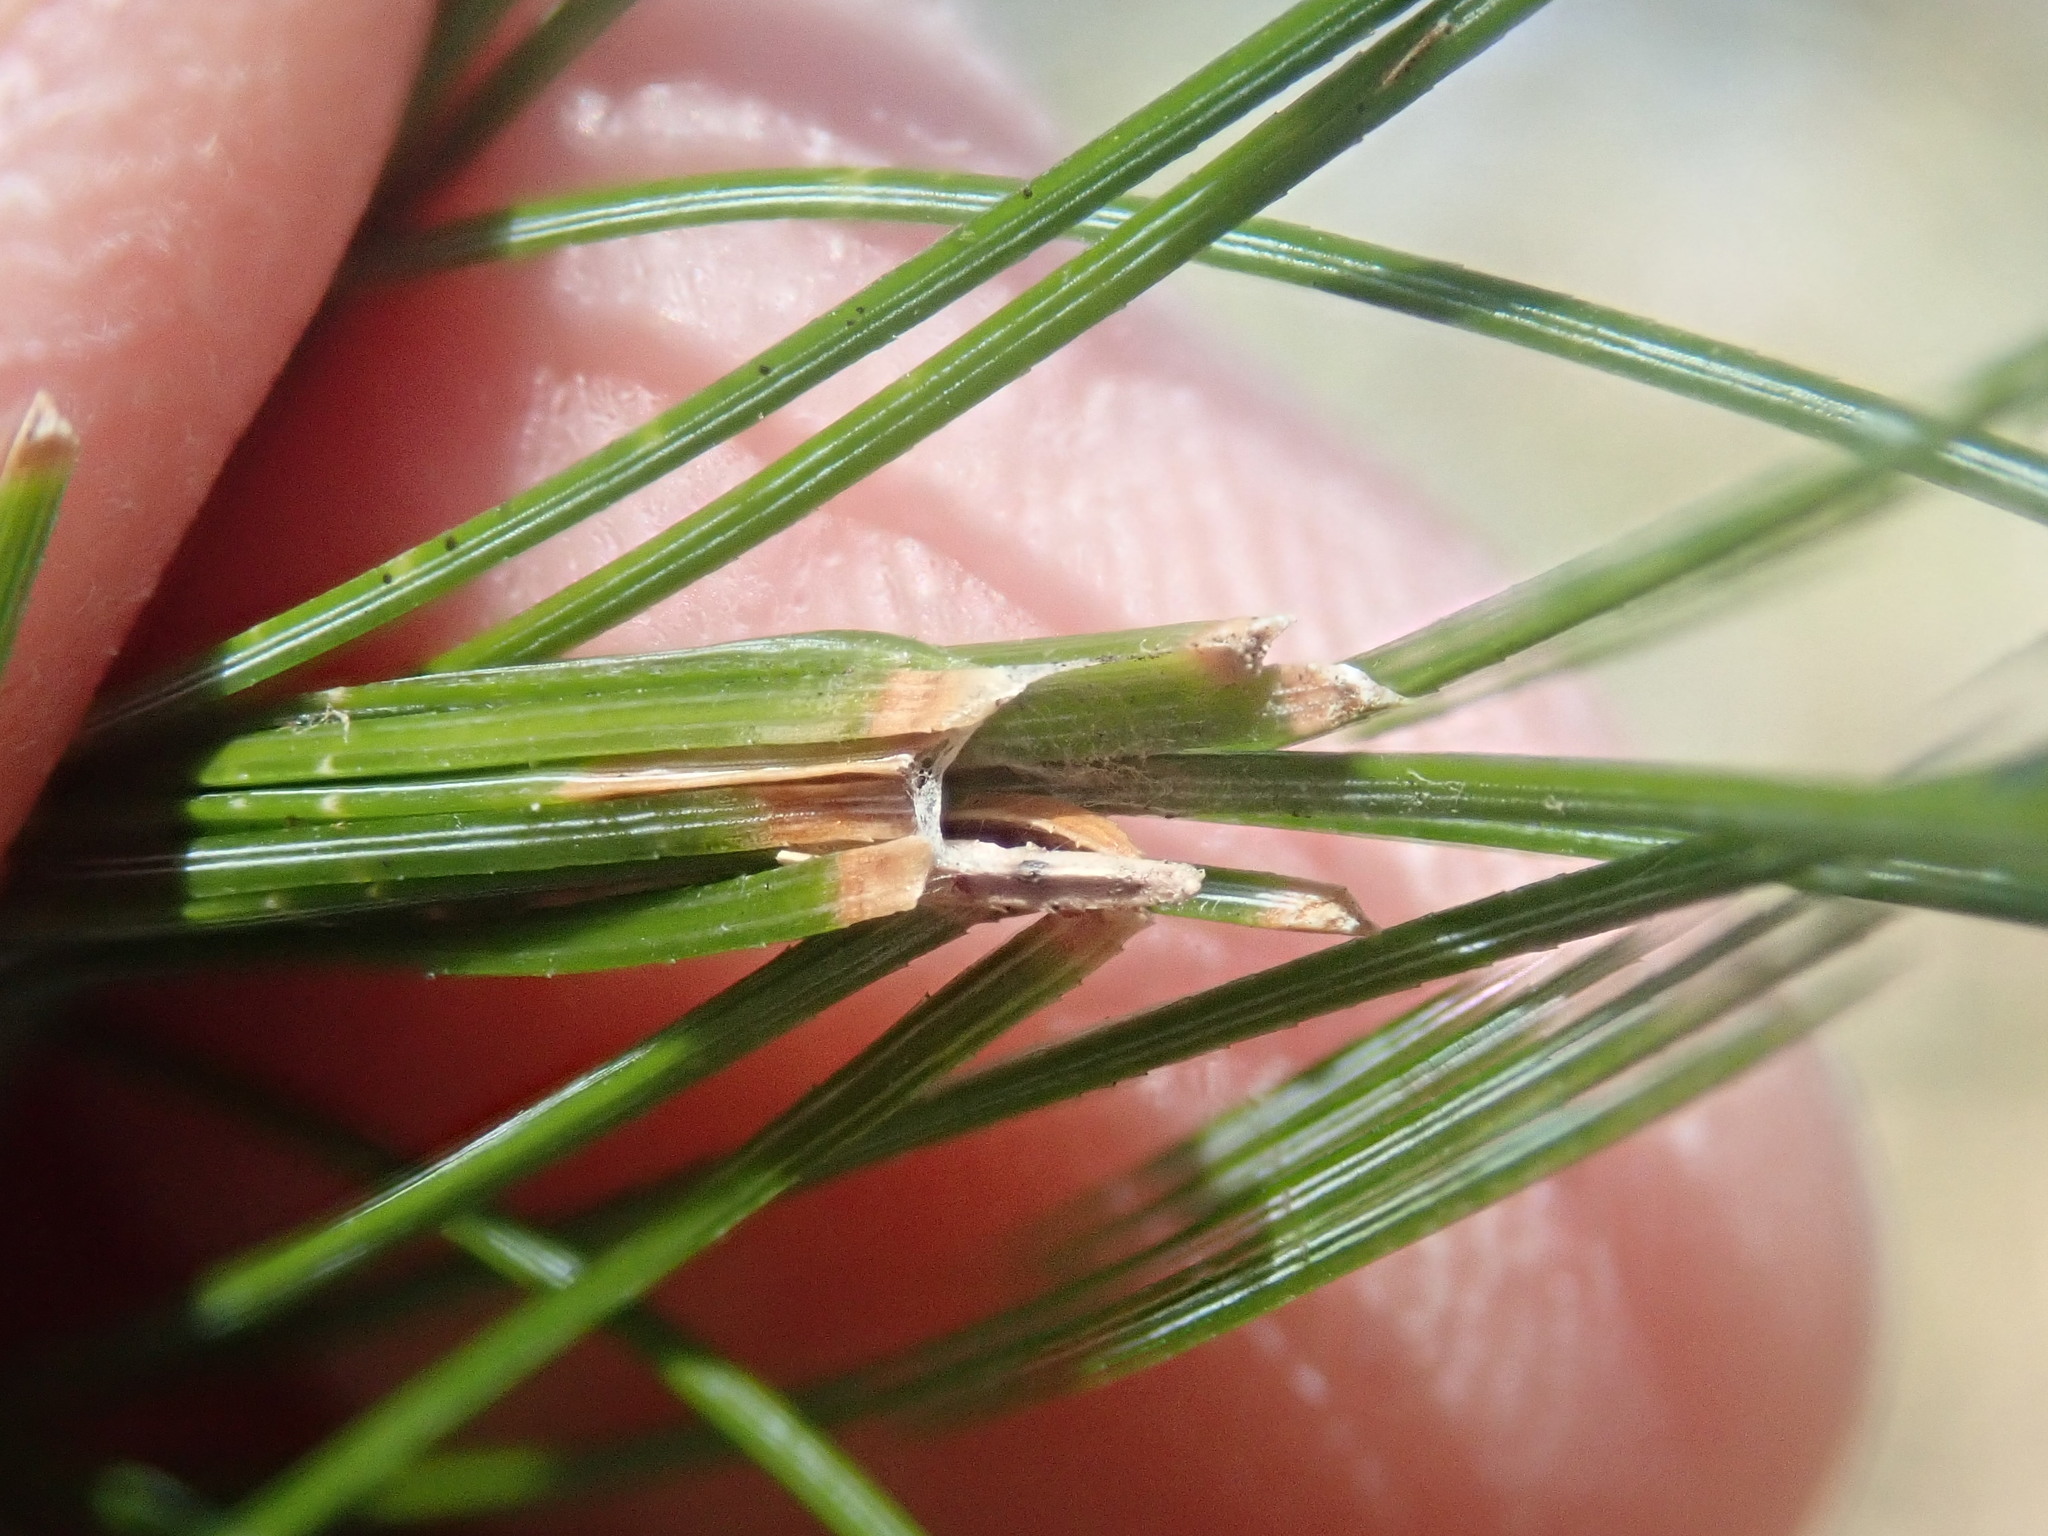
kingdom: Animalia
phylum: Arthropoda
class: Insecta
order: Lepidoptera
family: Tortricidae
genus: Argyrotaenia
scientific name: Argyrotaenia pinatubana
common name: Pine tube moth
